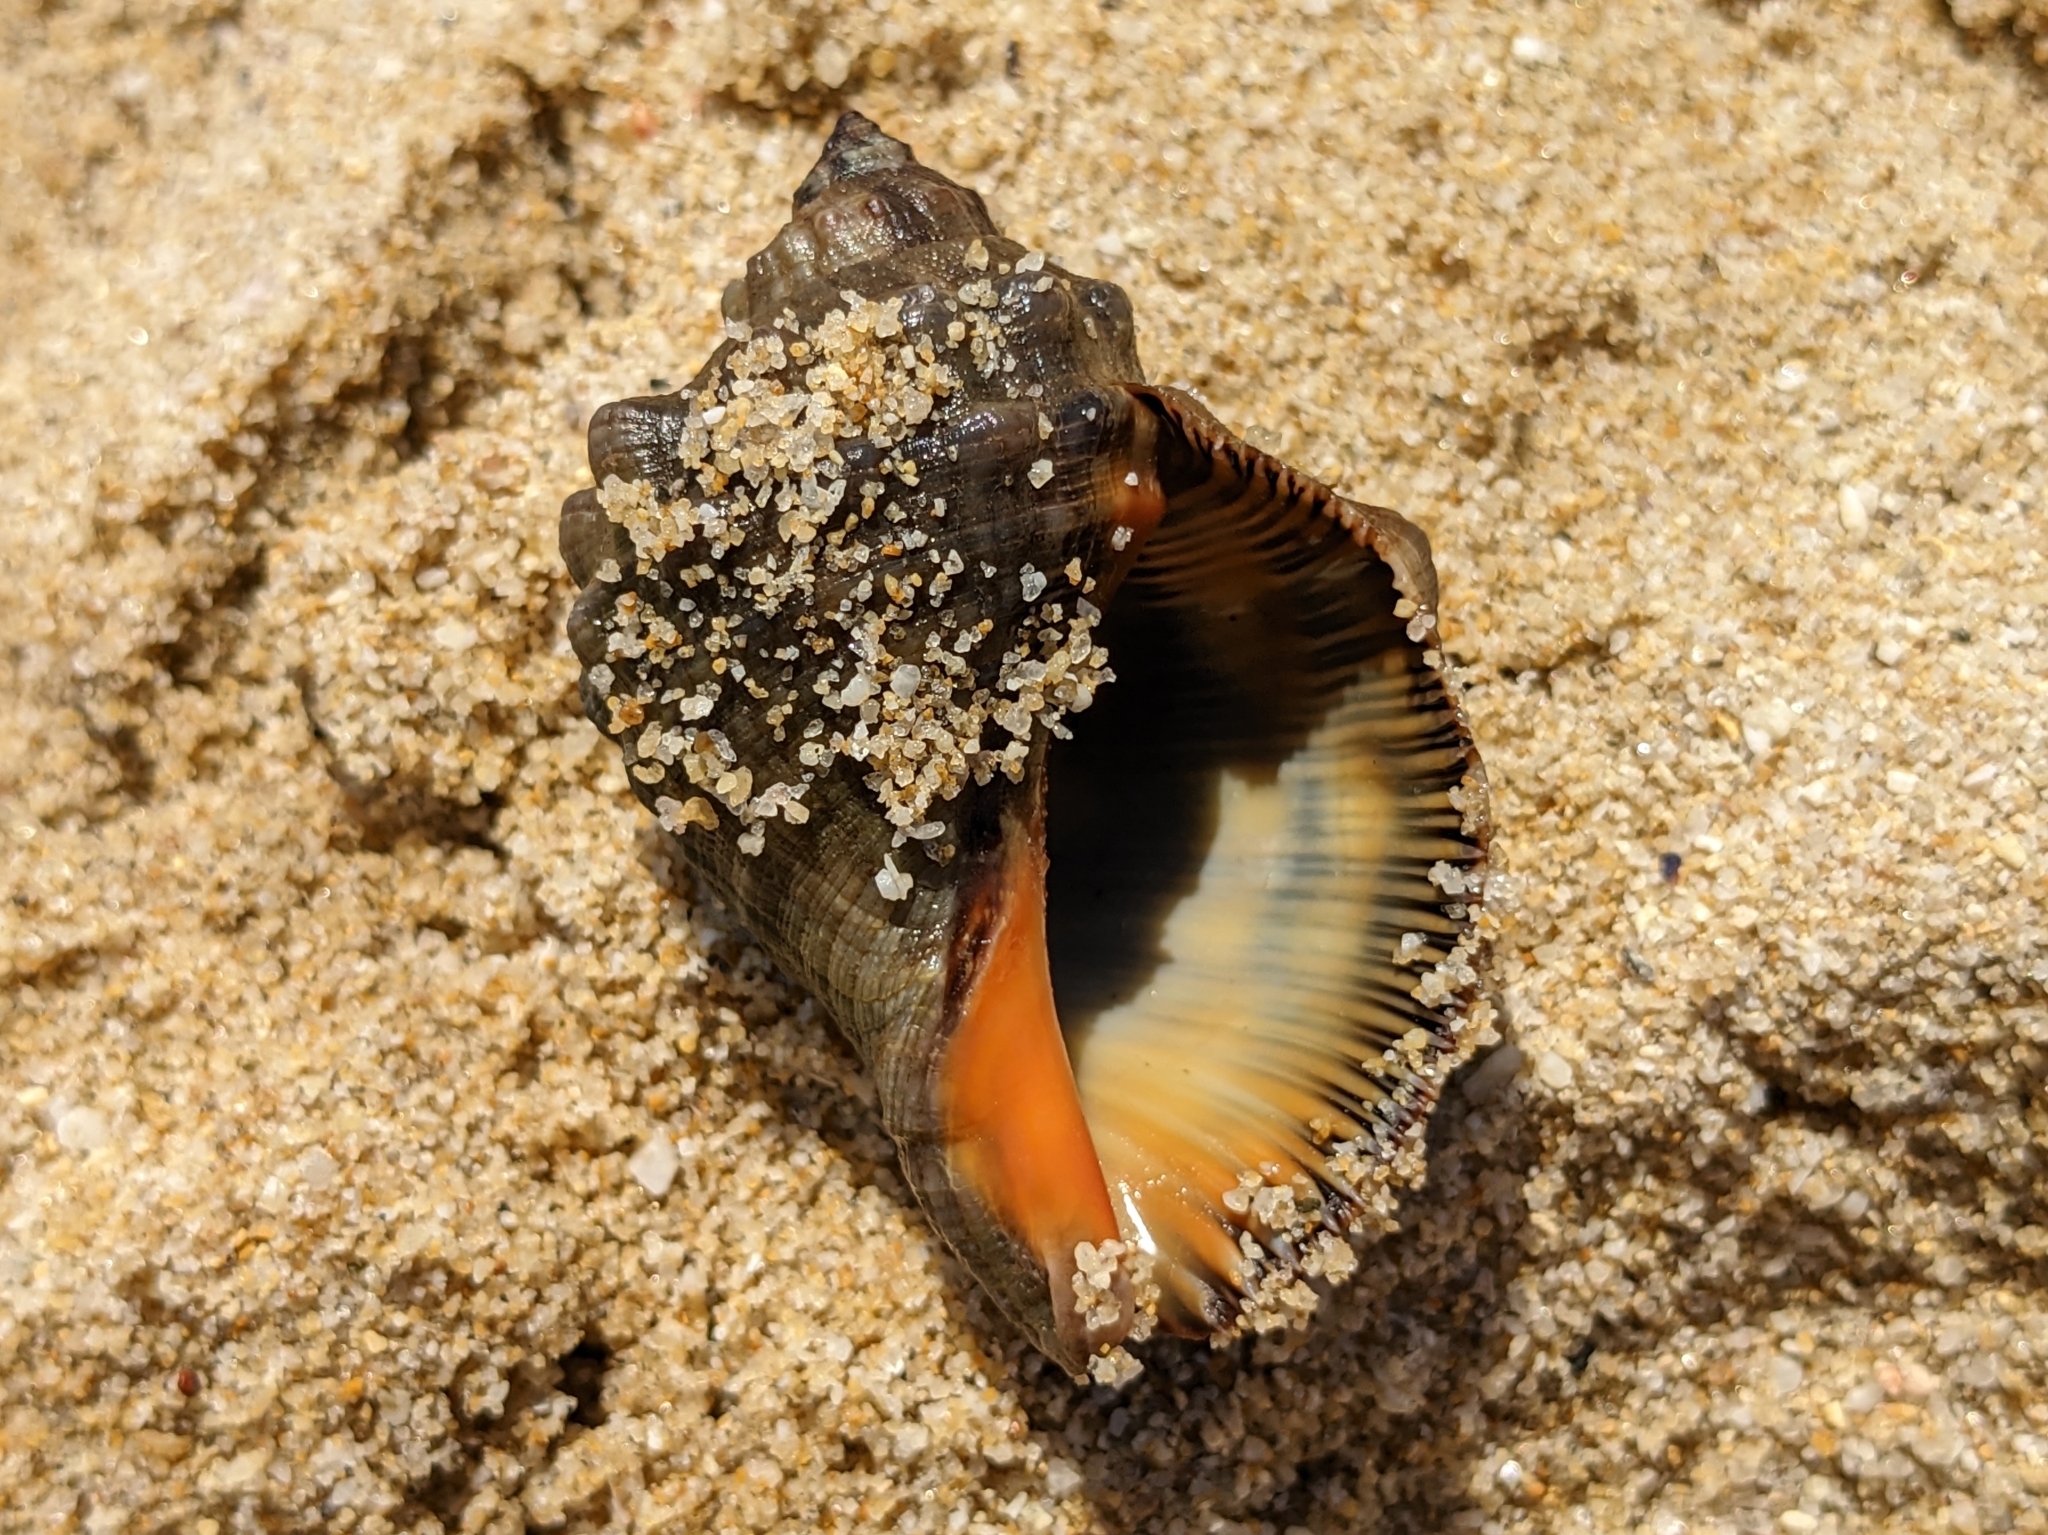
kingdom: Animalia
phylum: Mollusca
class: Gastropoda
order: Neogastropoda
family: Muricidae
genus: Stramonita
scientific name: Stramonita haemastoma
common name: Florida dog winkle
